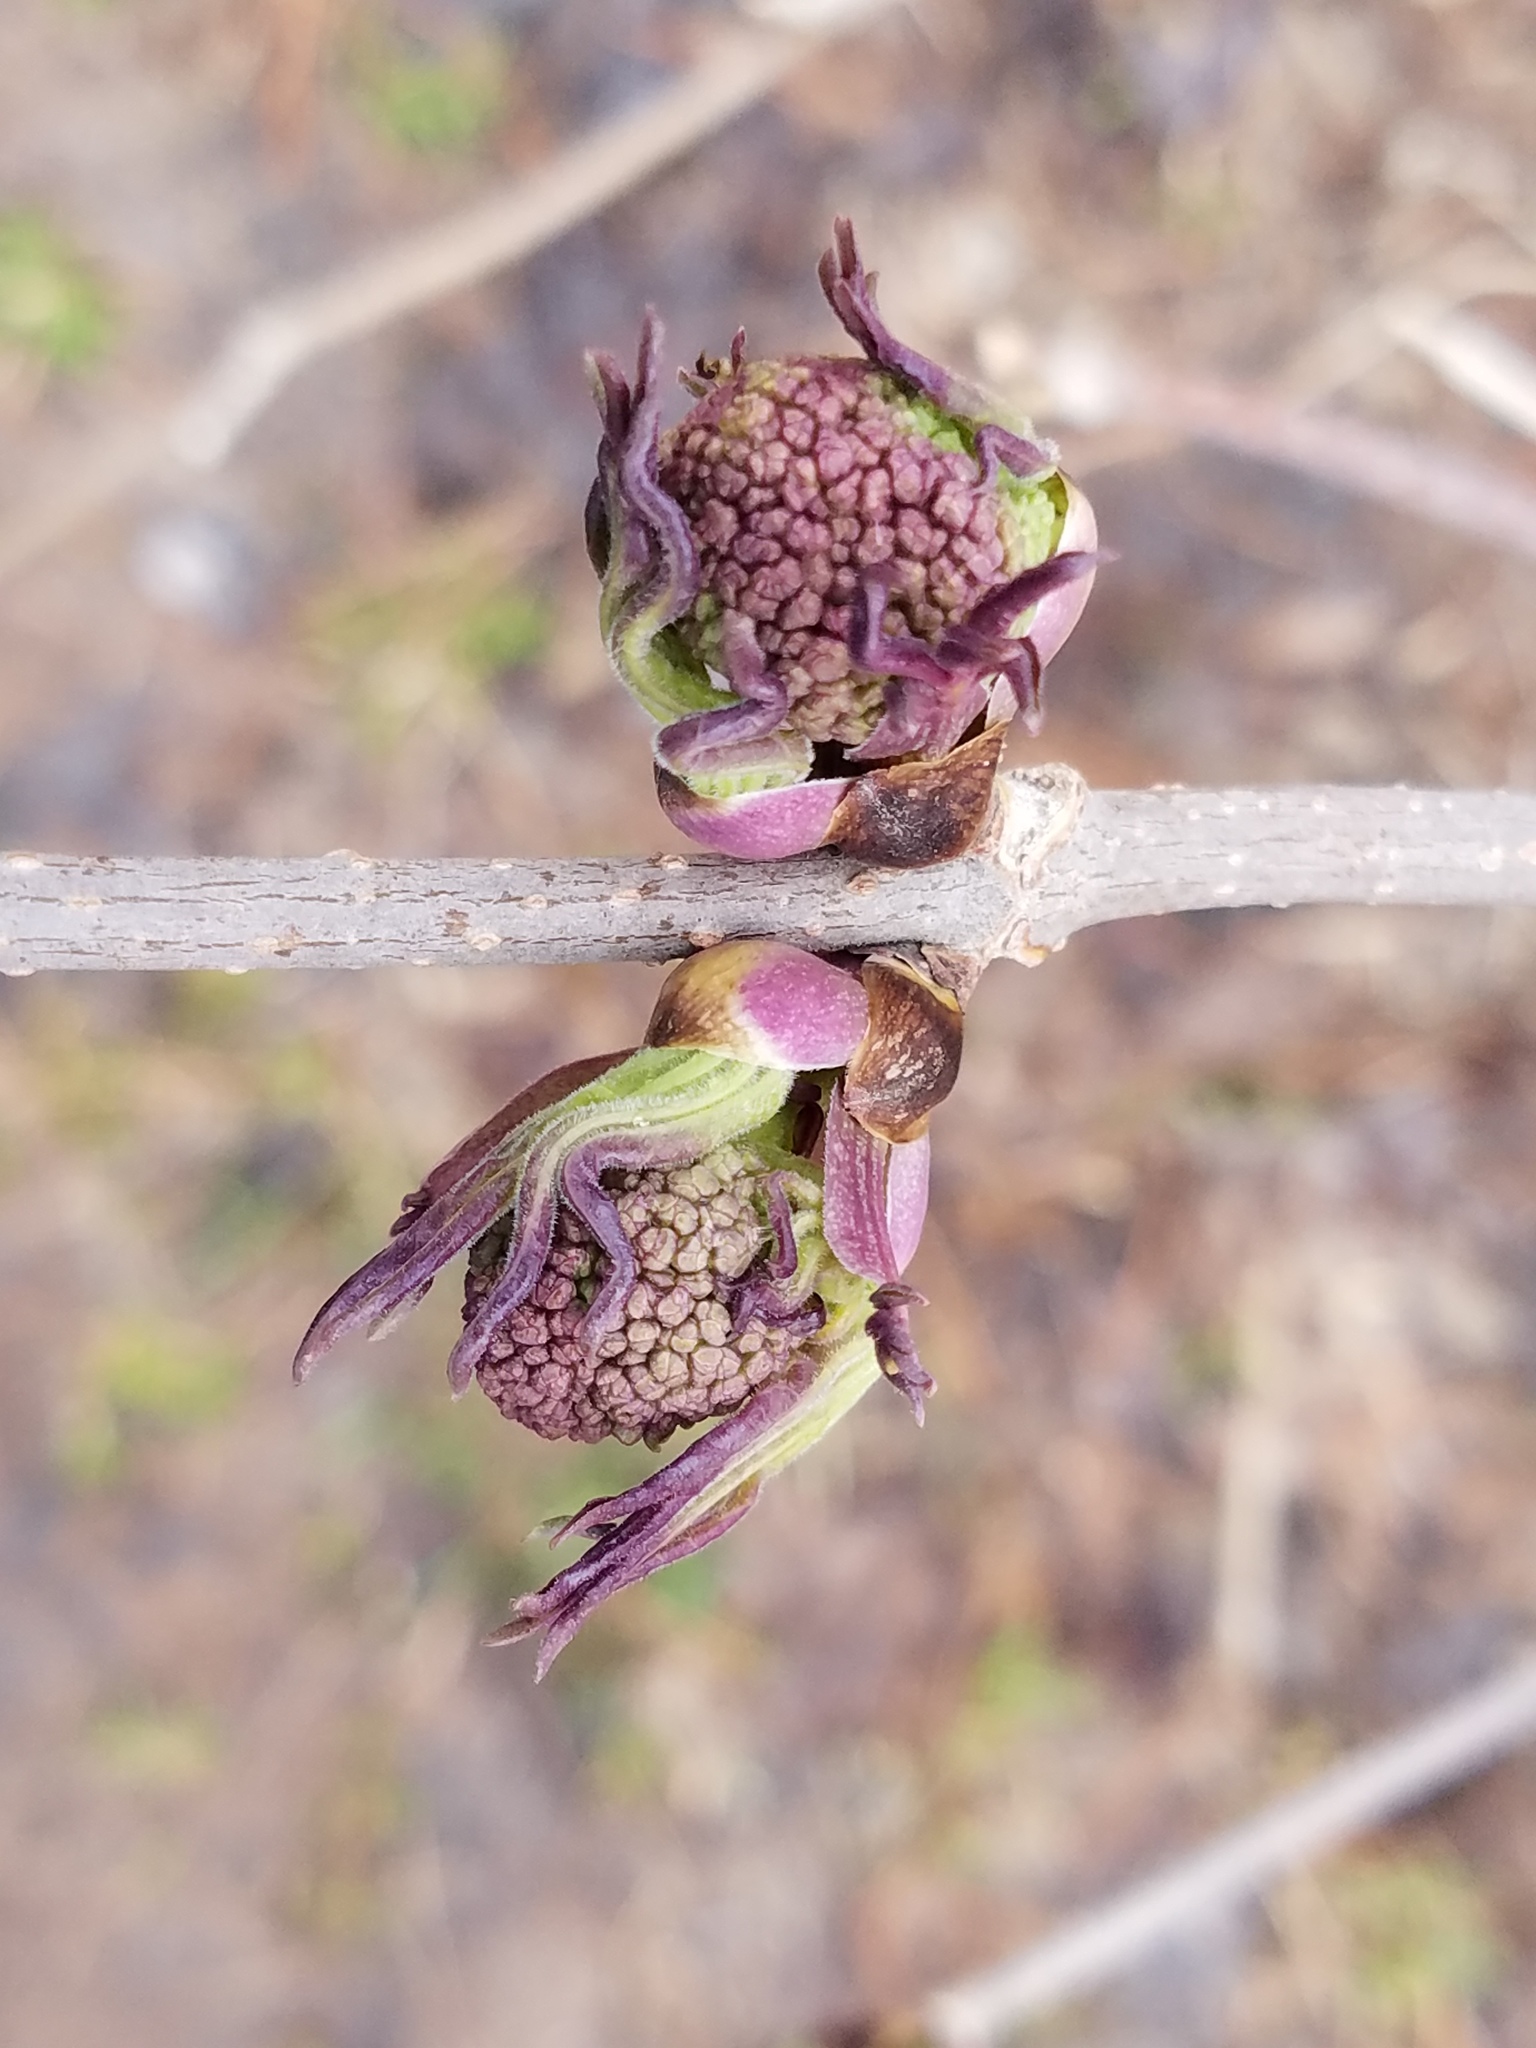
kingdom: Plantae
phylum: Tracheophyta
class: Magnoliopsida
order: Dipsacales
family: Viburnaceae
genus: Sambucus
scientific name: Sambucus racemosa
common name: Red-berried elder
